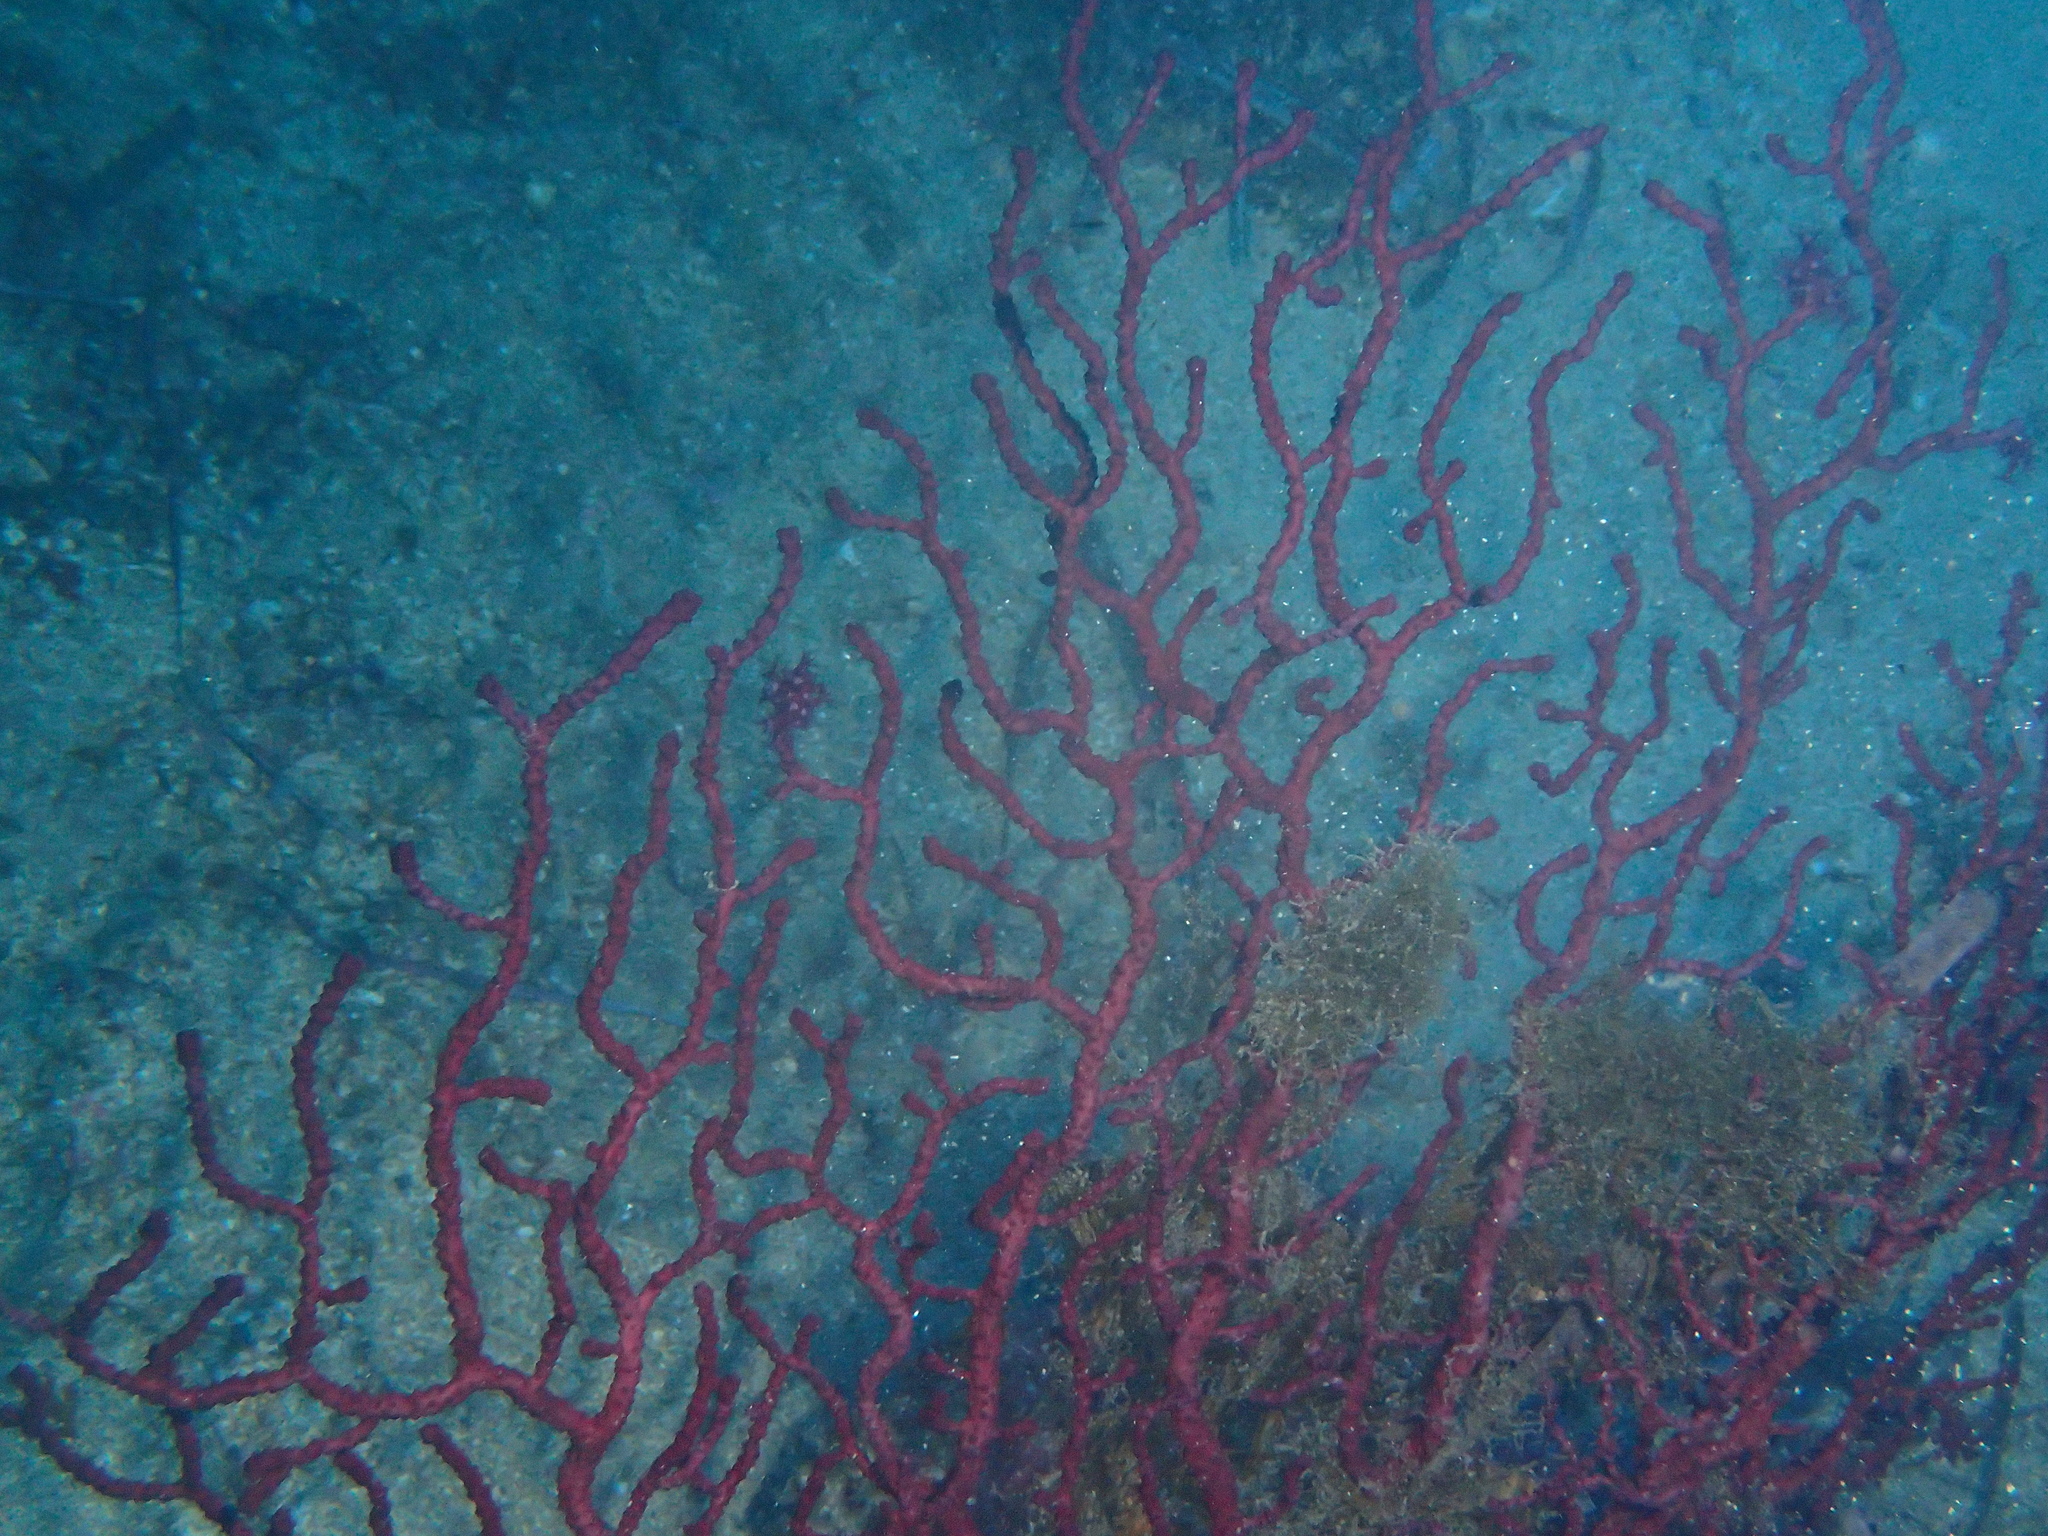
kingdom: Animalia
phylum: Cnidaria
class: Anthozoa
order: Malacalcyonacea
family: Paramuriceidae
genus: Paramuricea
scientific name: Paramuricea clavata
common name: Violescent sea-whip
